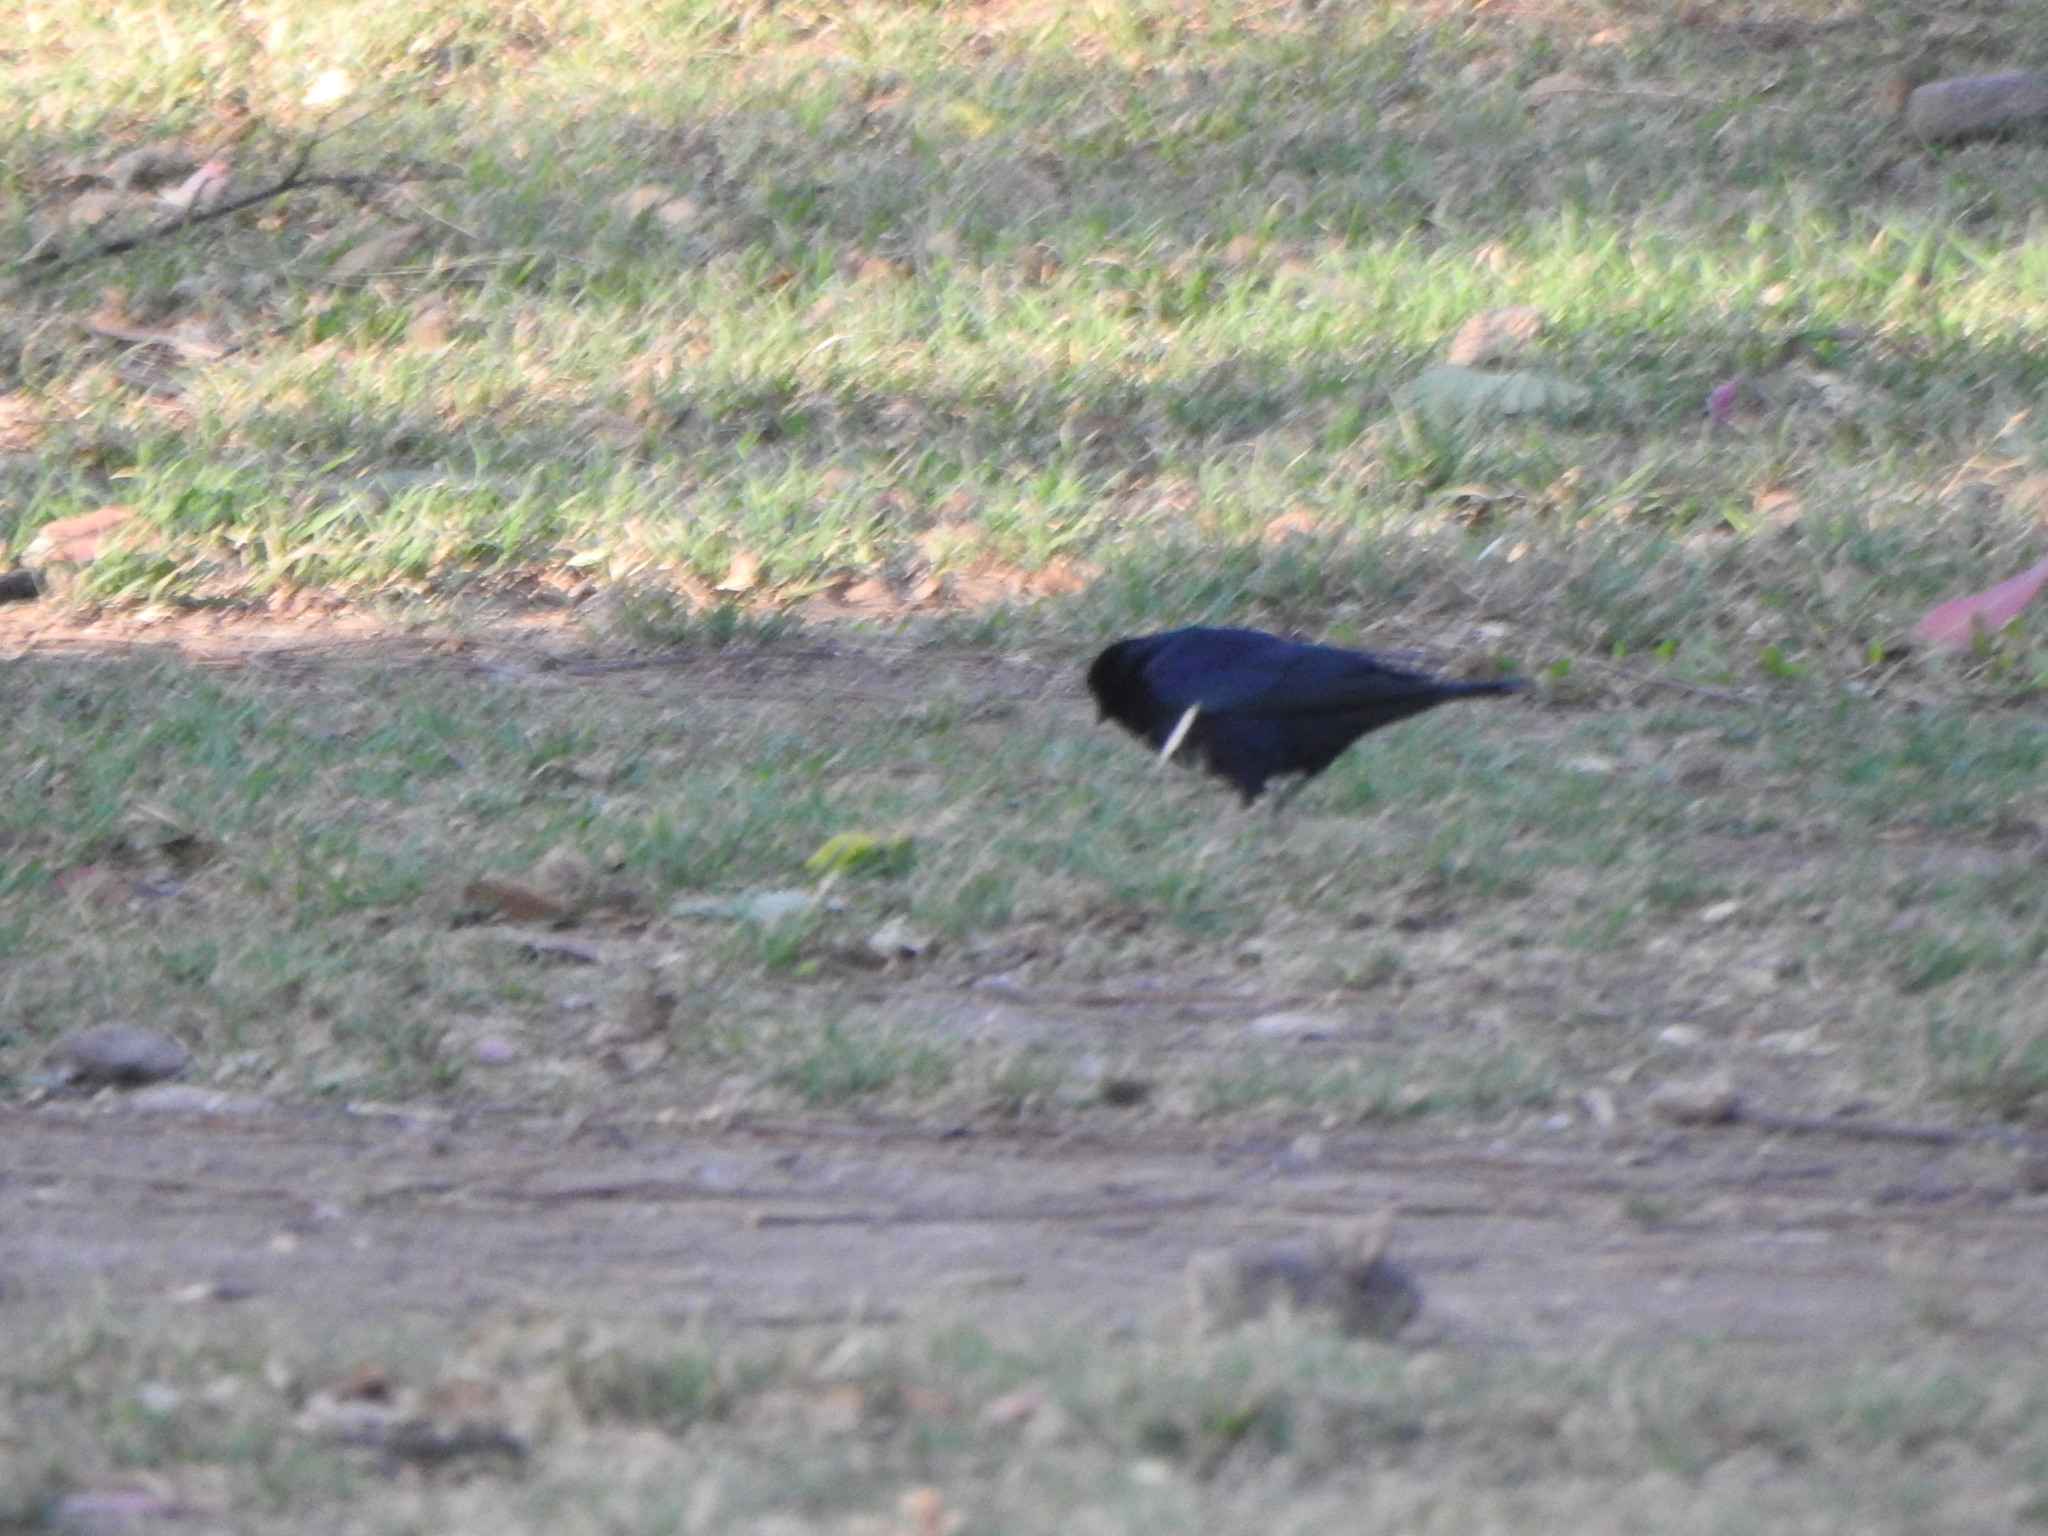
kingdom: Animalia
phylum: Chordata
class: Aves
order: Passeriformes
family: Icteridae
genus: Molothrus
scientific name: Molothrus bonariensis
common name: Shiny cowbird
